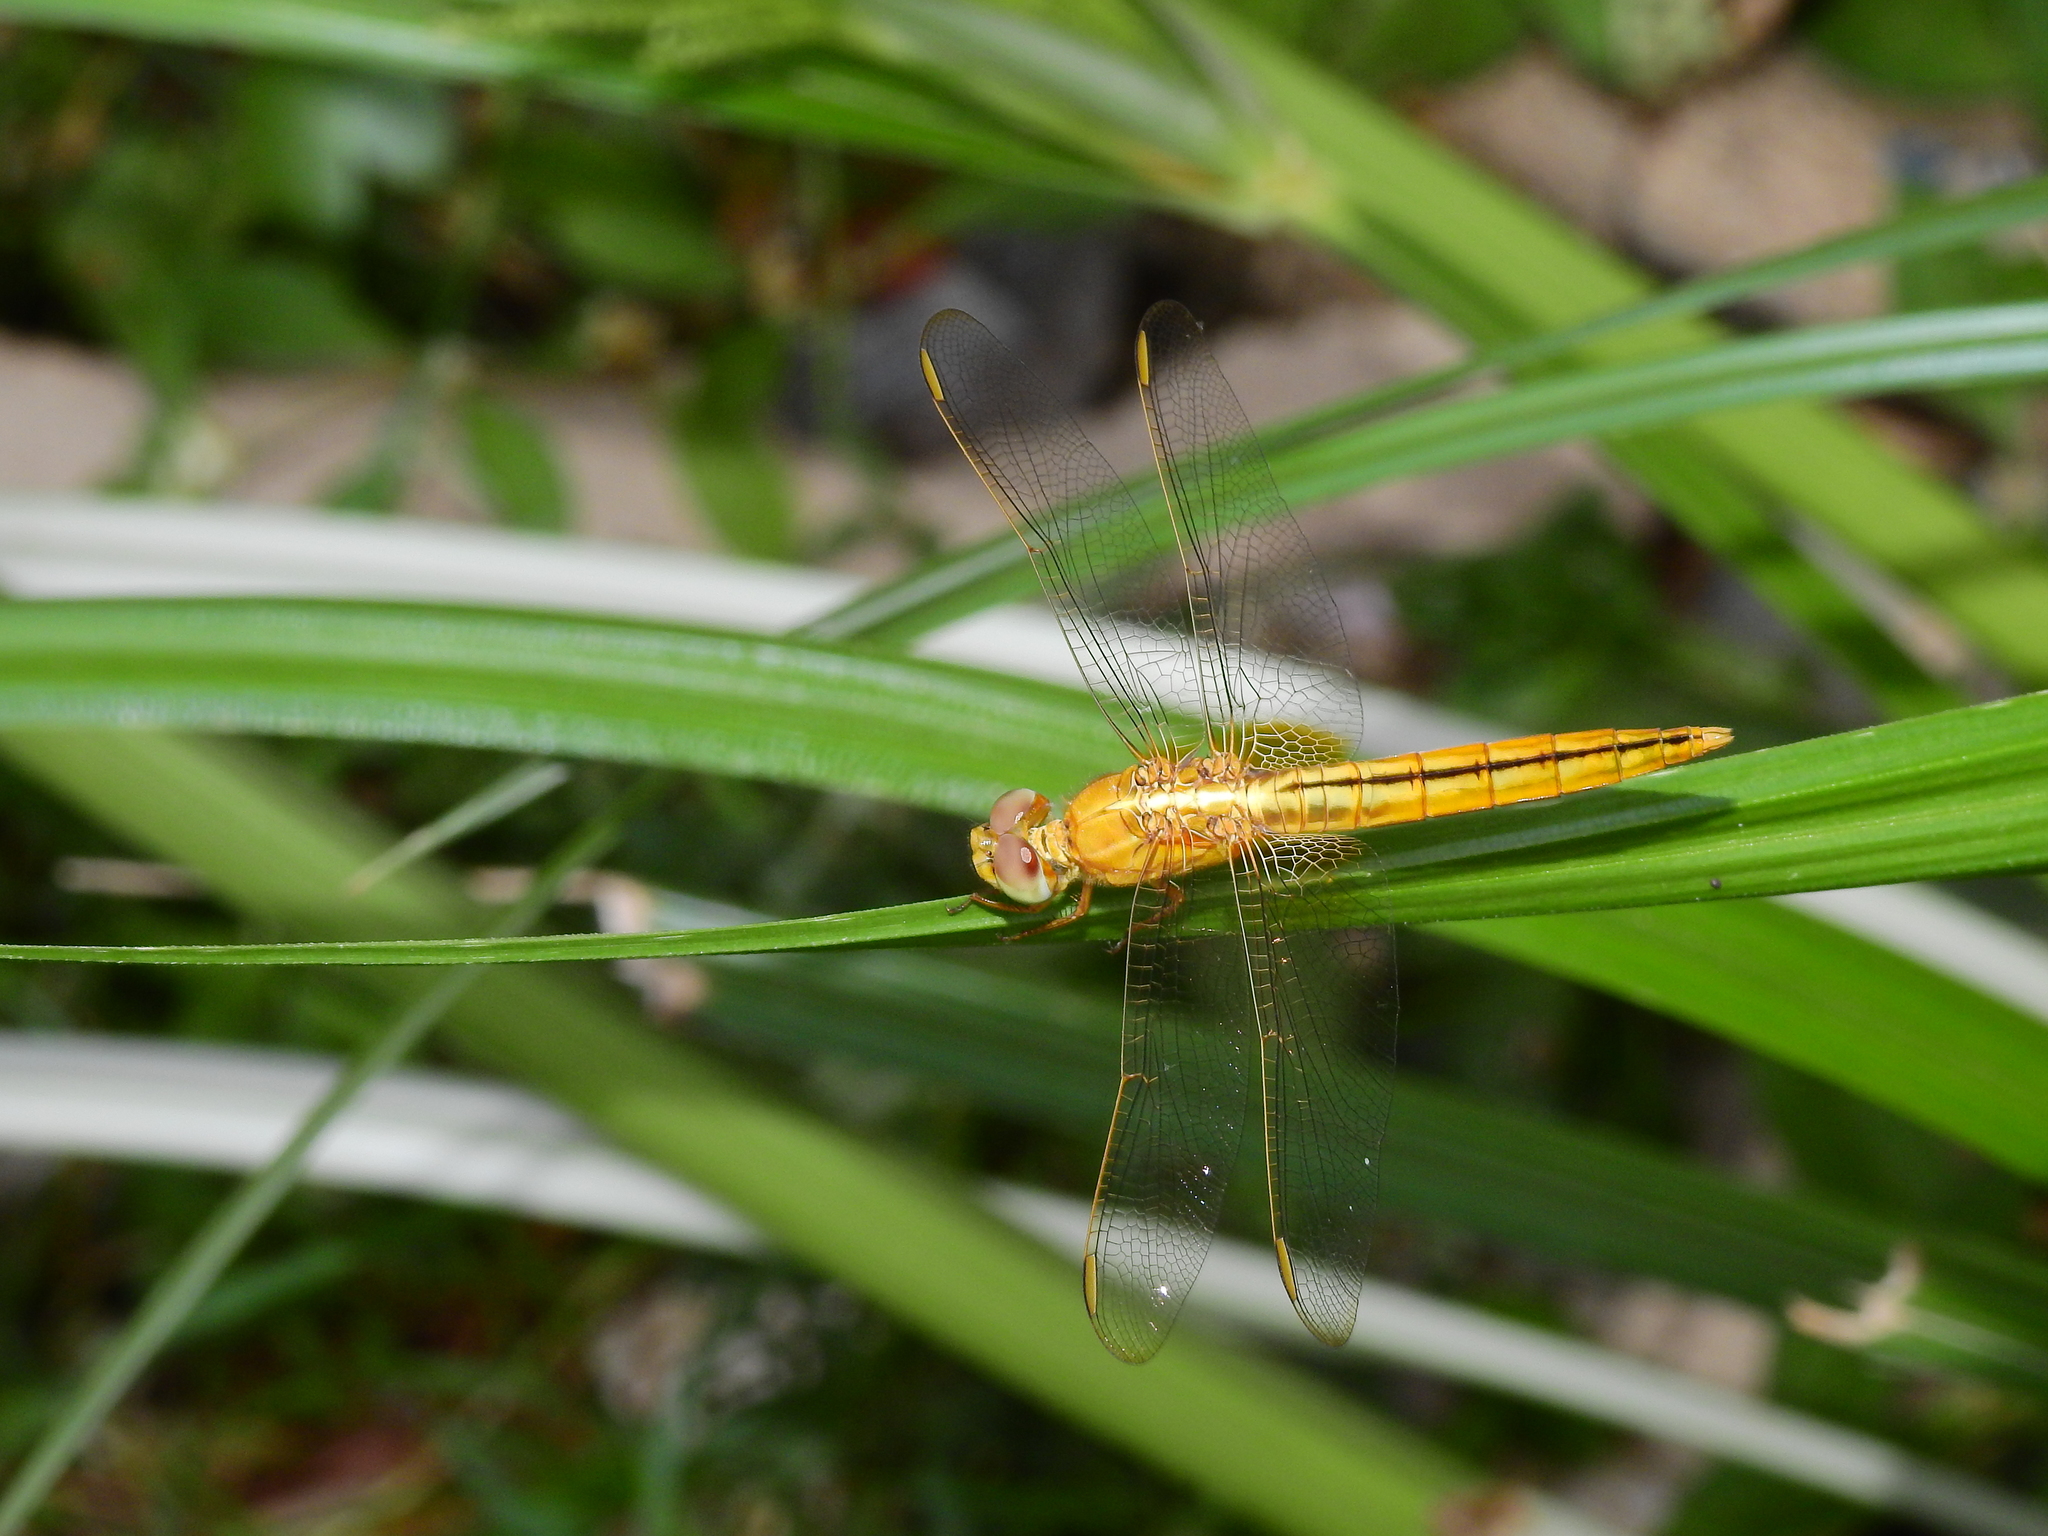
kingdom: Animalia
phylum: Arthropoda
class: Insecta
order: Odonata
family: Libellulidae
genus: Crocothemis
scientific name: Crocothemis servilia
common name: Scarlet skimmer
